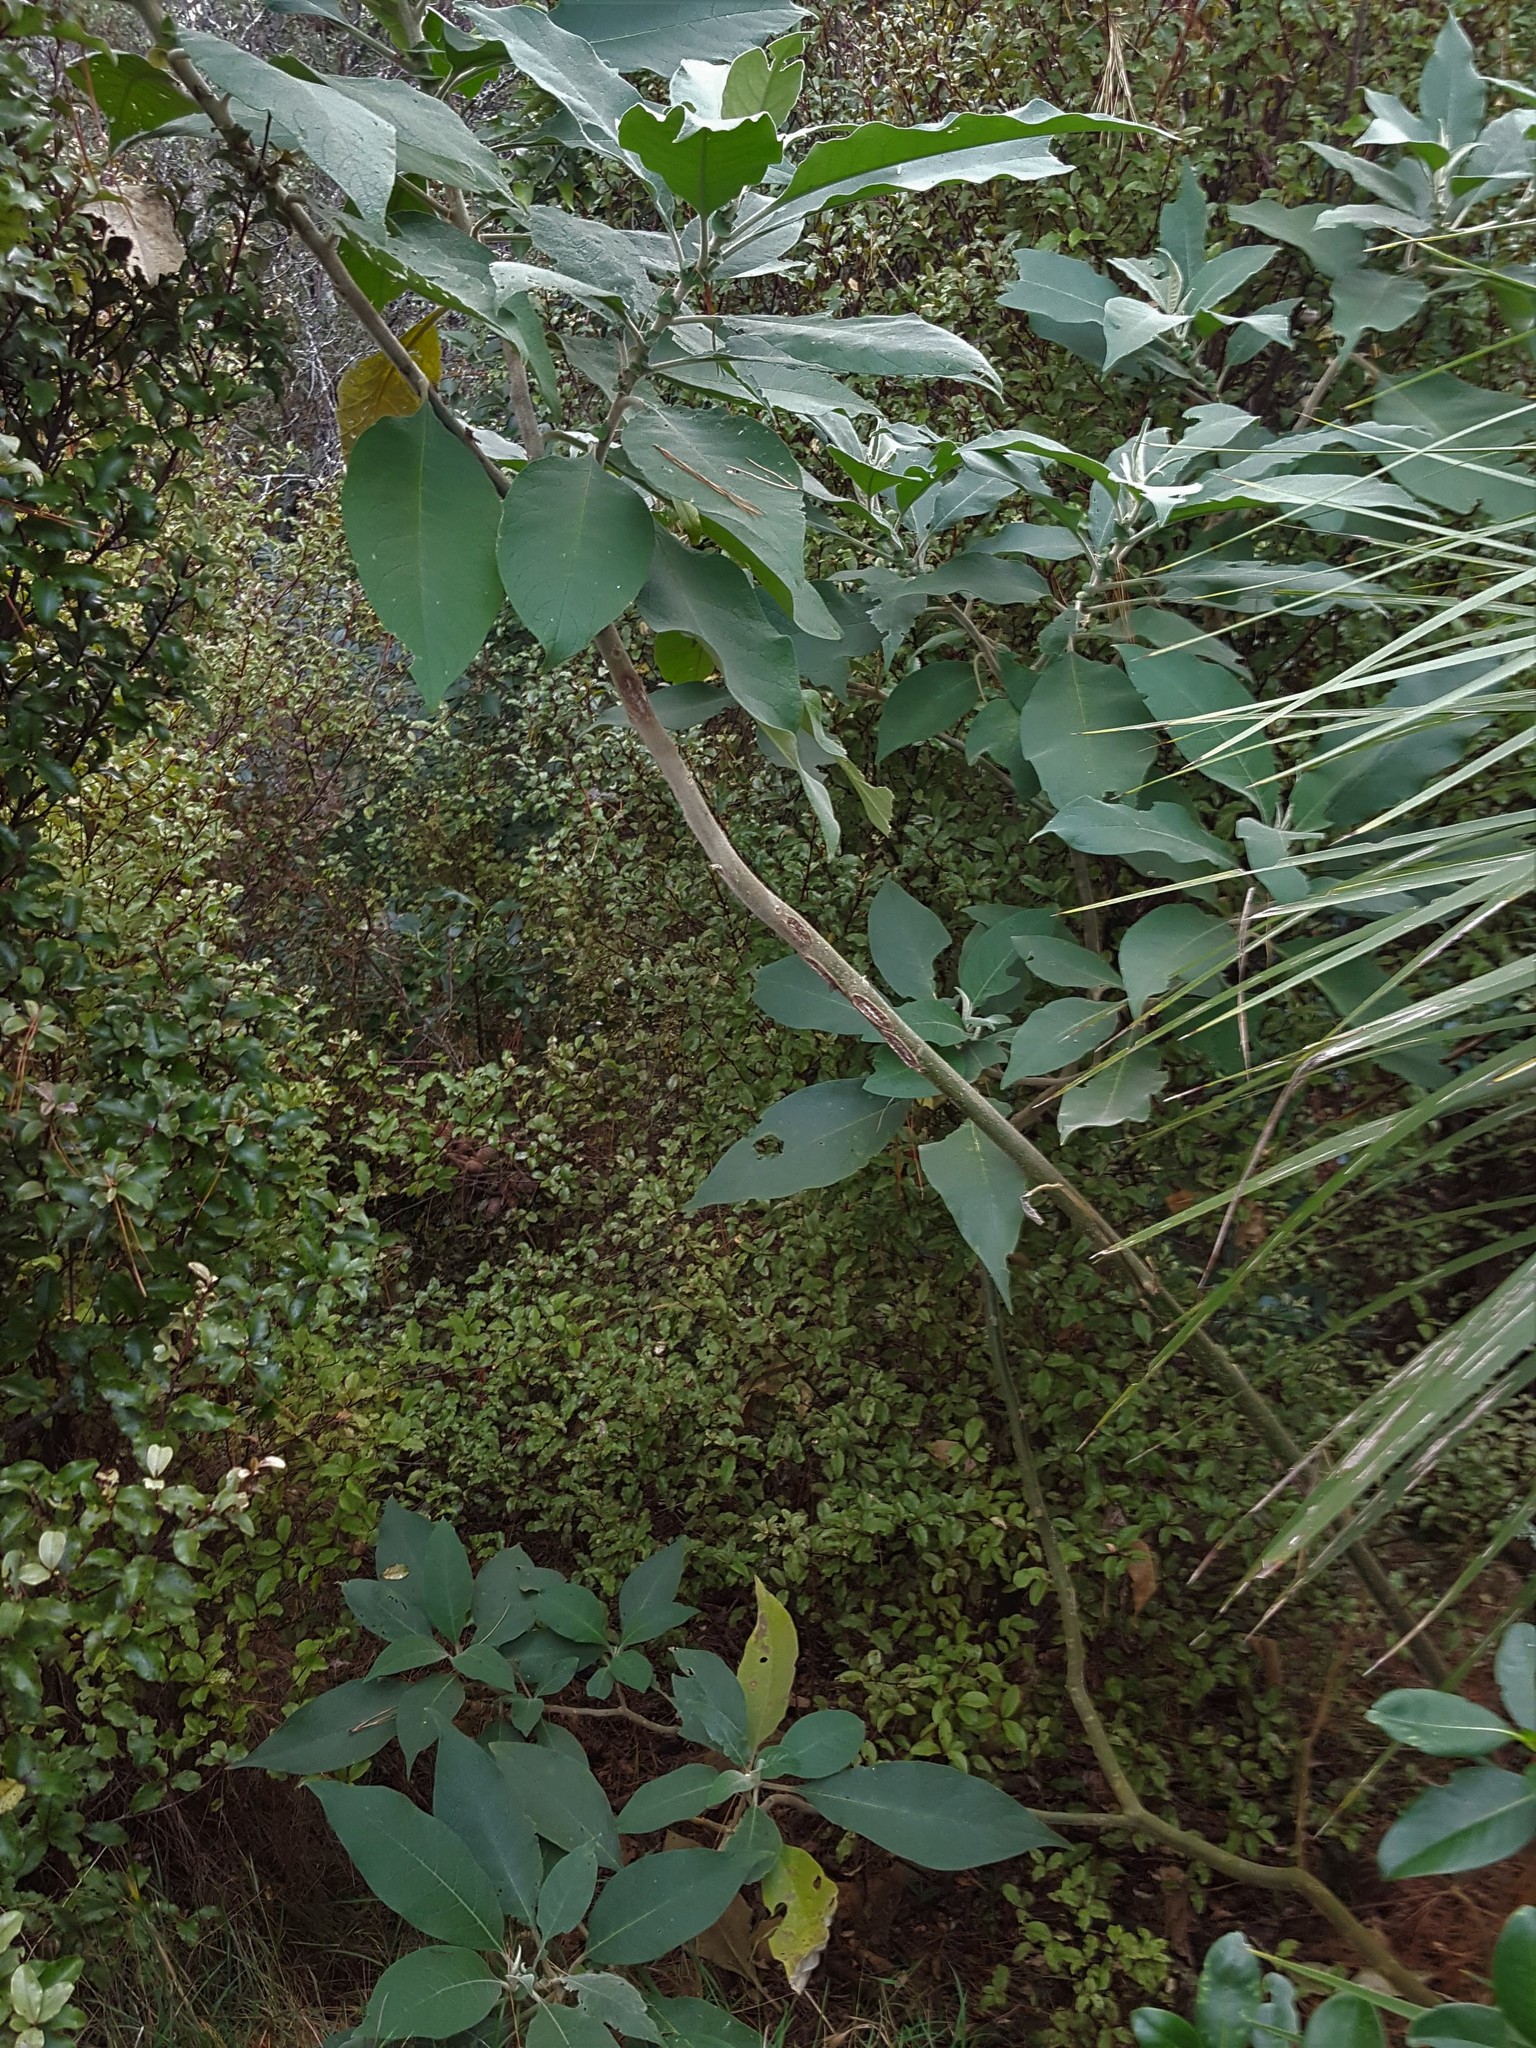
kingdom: Plantae
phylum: Tracheophyta
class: Magnoliopsida
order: Solanales
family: Solanaceae
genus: Solanum
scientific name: Solanum mauritianum
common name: Earleaf nightshade
